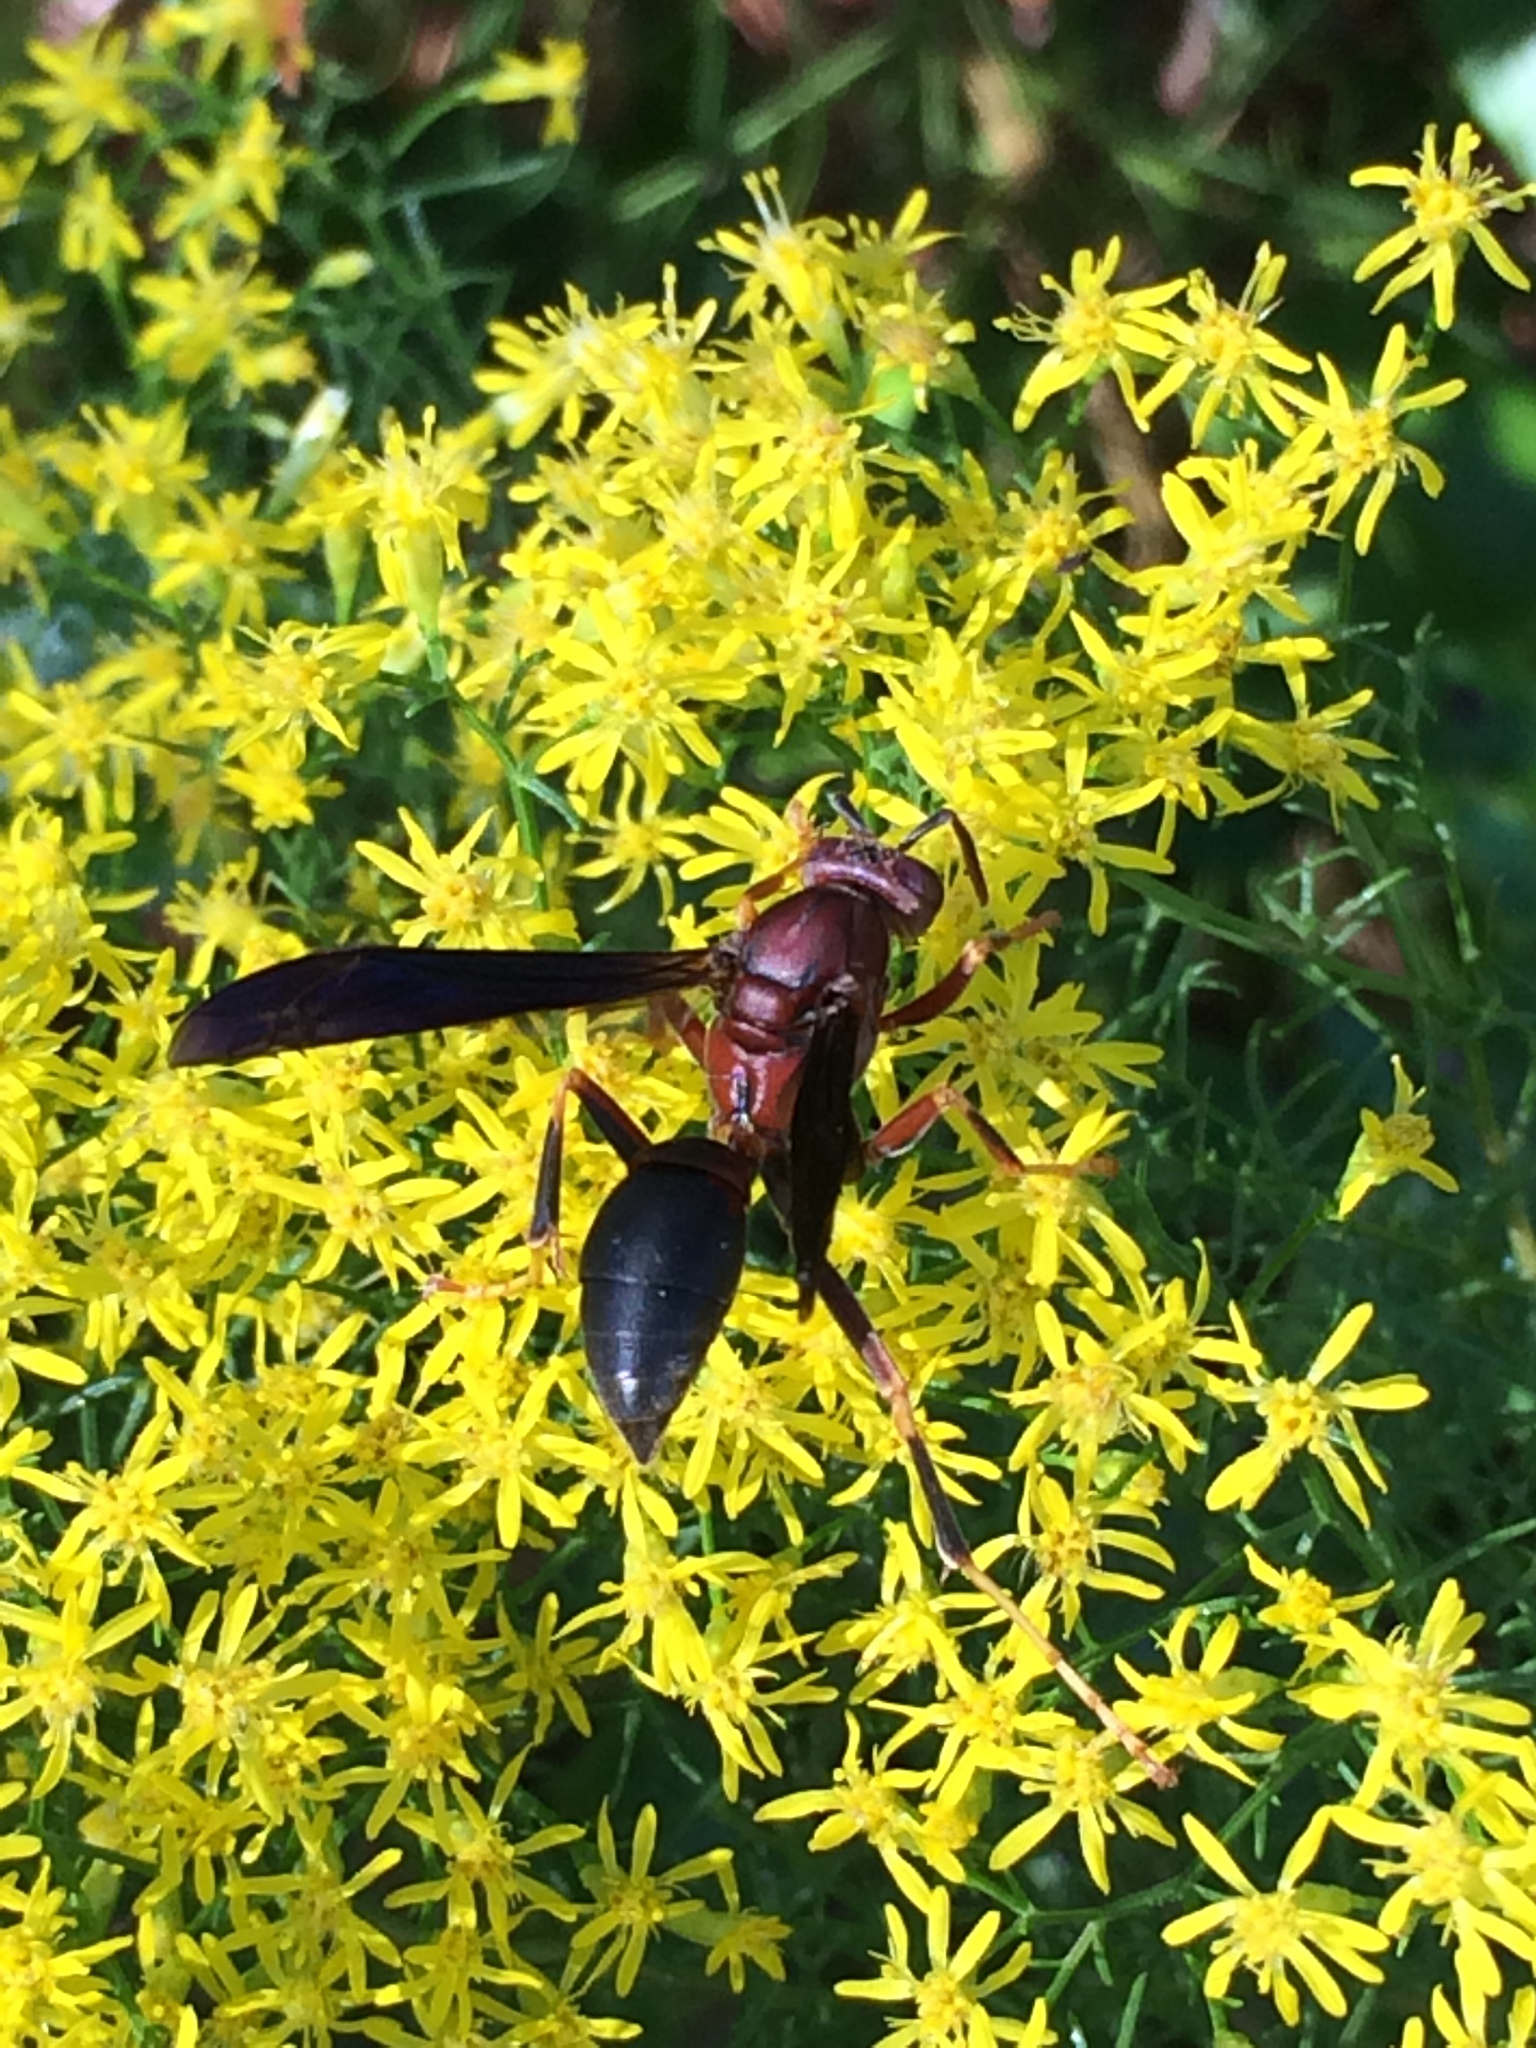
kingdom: Animalia
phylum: Arthropoda
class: Insecta
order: Hymenoptera
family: Eumenidae
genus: Polistes
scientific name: Polistes metricus
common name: Metric paper wasp
